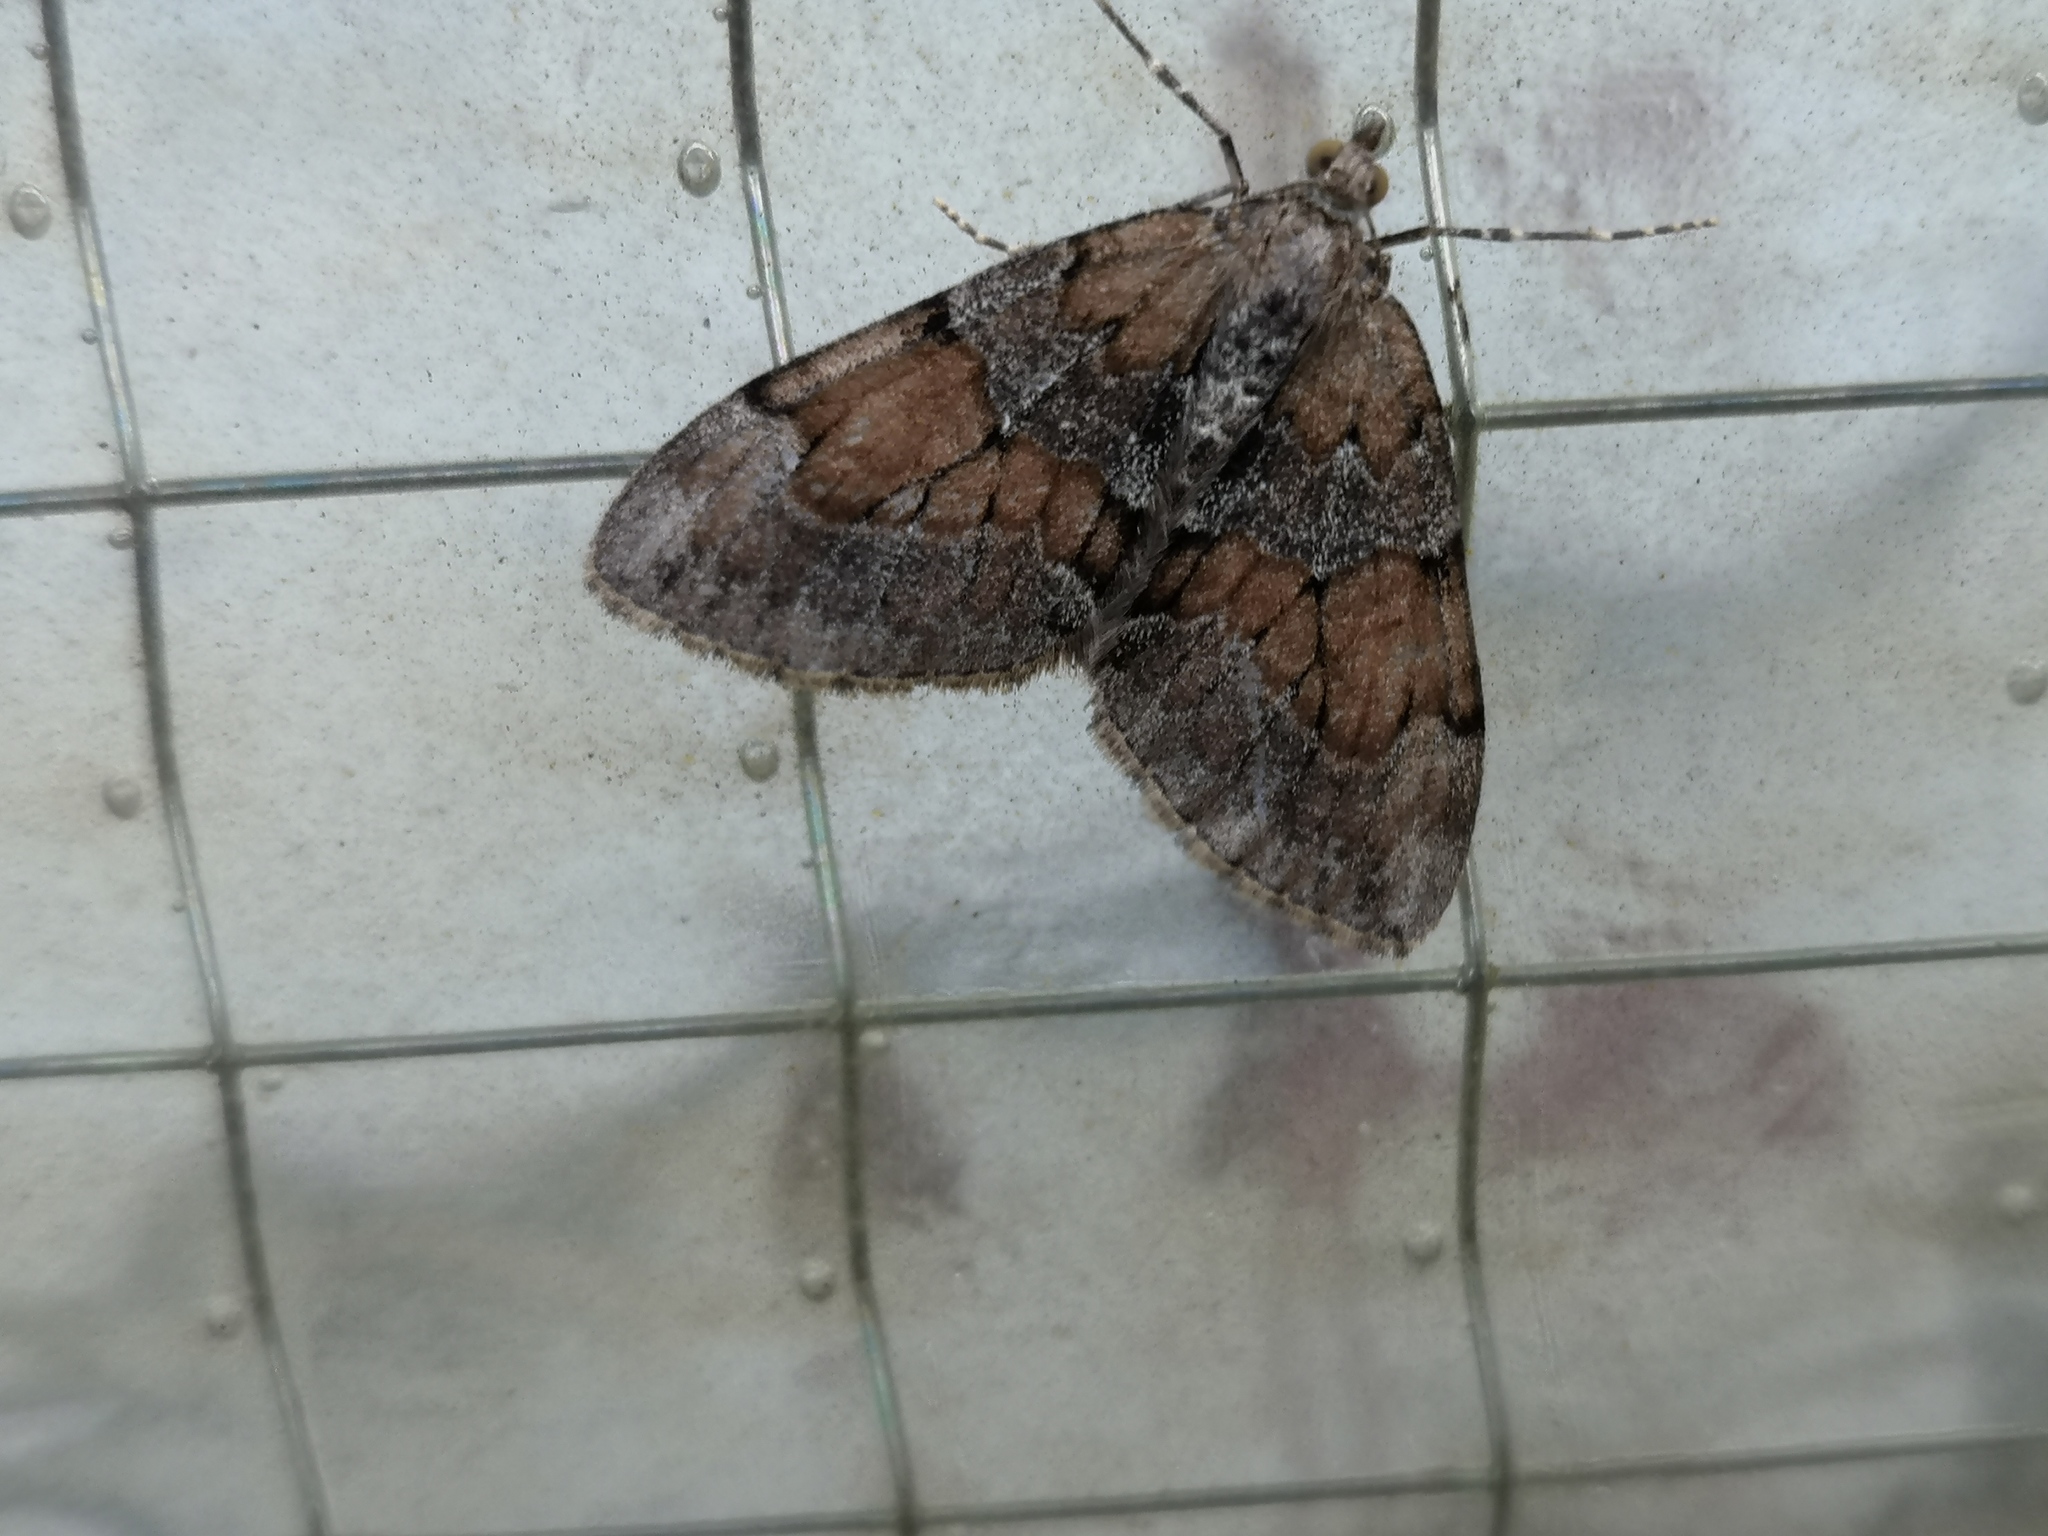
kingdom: Animalia
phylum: Arthropoda
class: Insecta
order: Lepidoptera
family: Geometridae
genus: Thera
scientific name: Thera obeliscata
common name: Grey pine carpet
